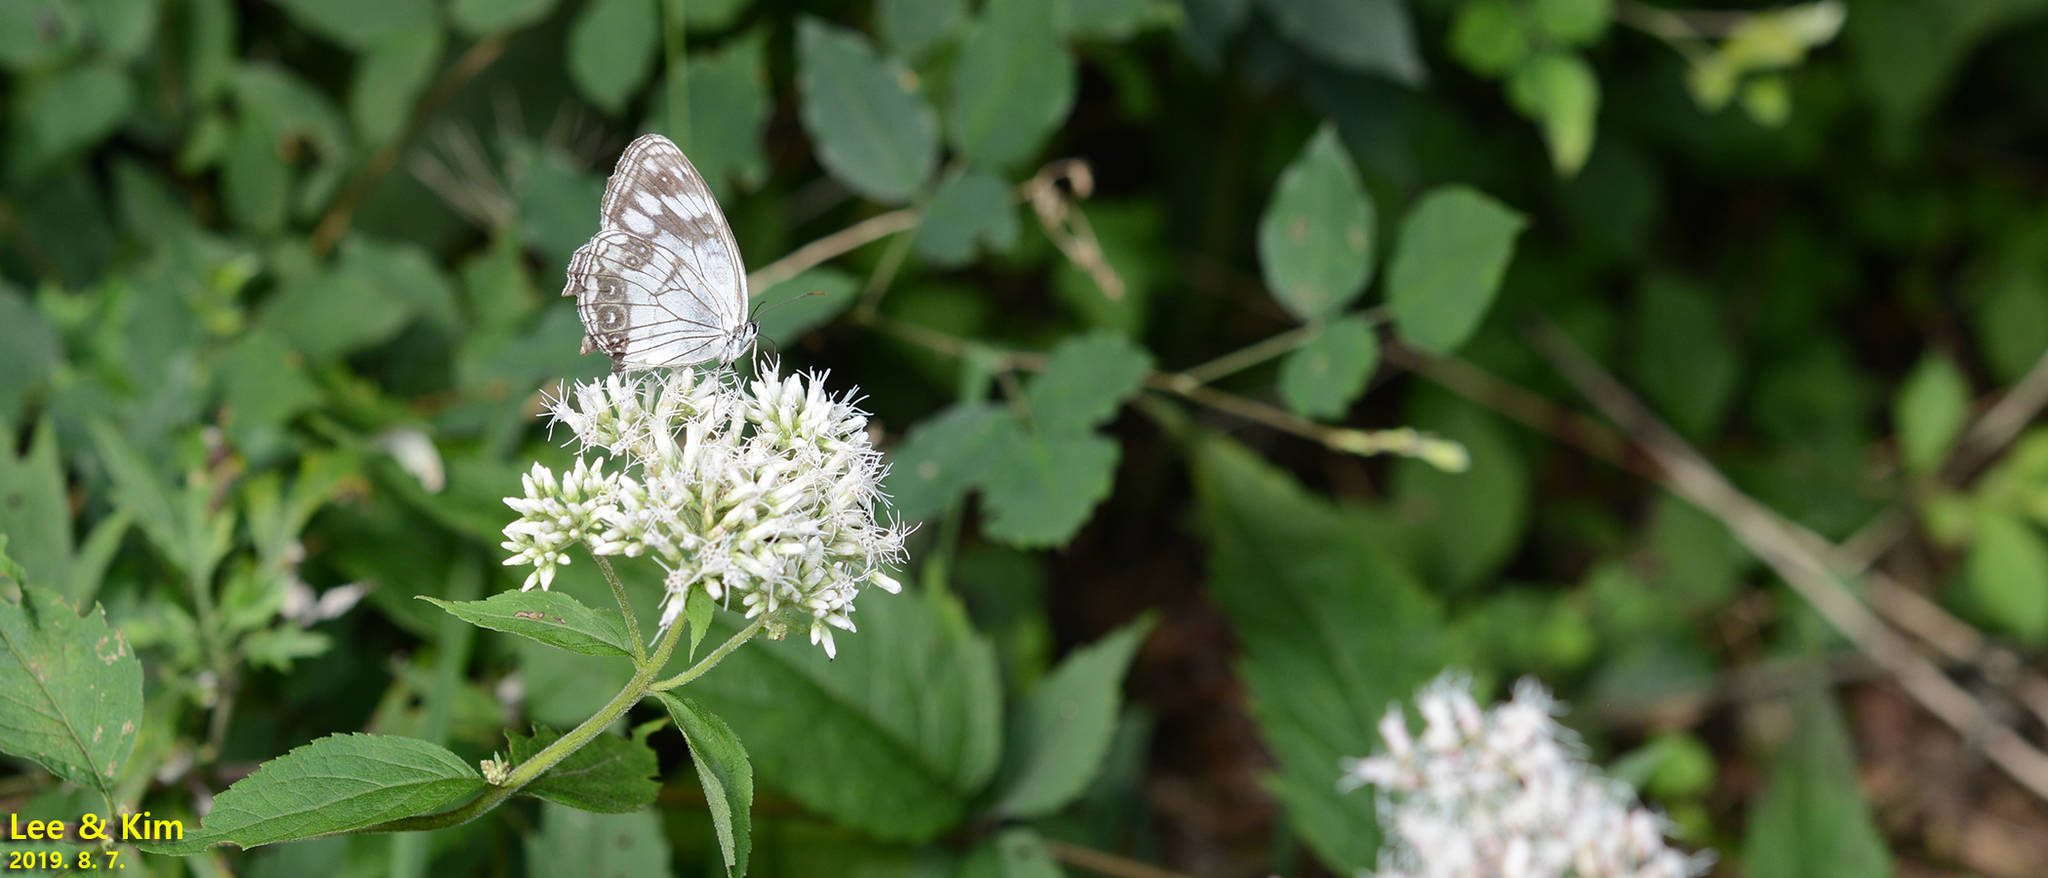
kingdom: Animalia
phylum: Arthropoda
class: Insecta
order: Lepidoptera
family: Nymphalidae
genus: Melanargia
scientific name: Melanargia halimede
